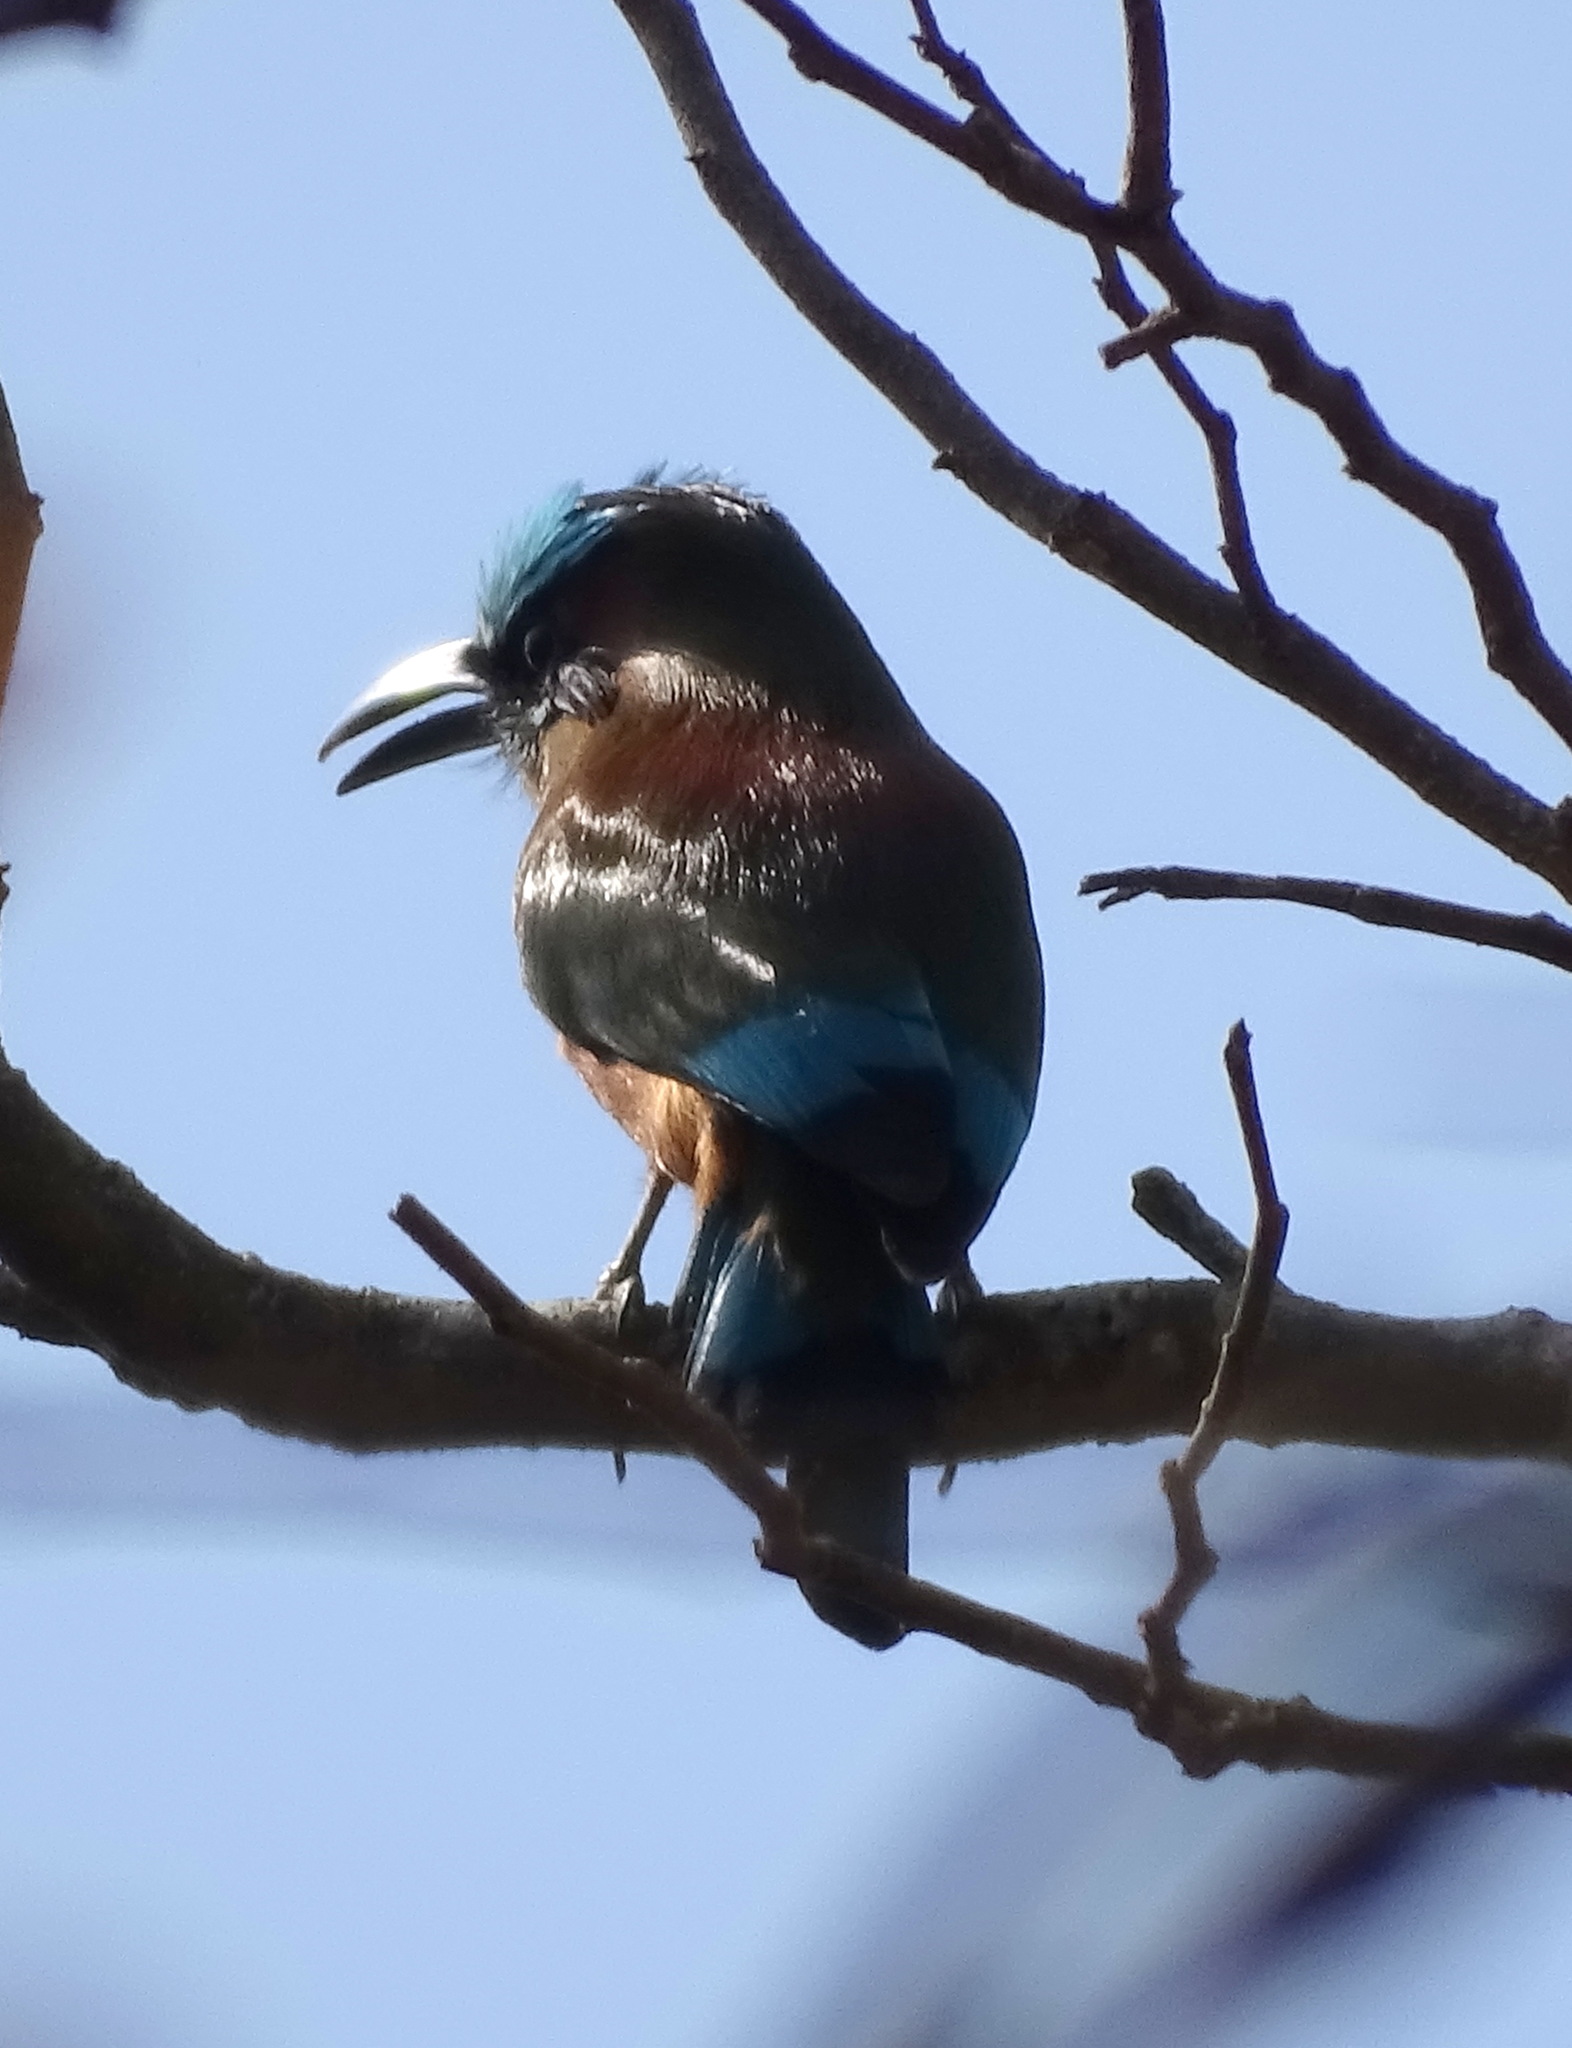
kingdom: Animalia
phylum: Chordata
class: Aves
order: Coraciiformes
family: Momotidae
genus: Eumomota
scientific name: Eumomota superciliosa
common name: Turquoise-browed motmot
